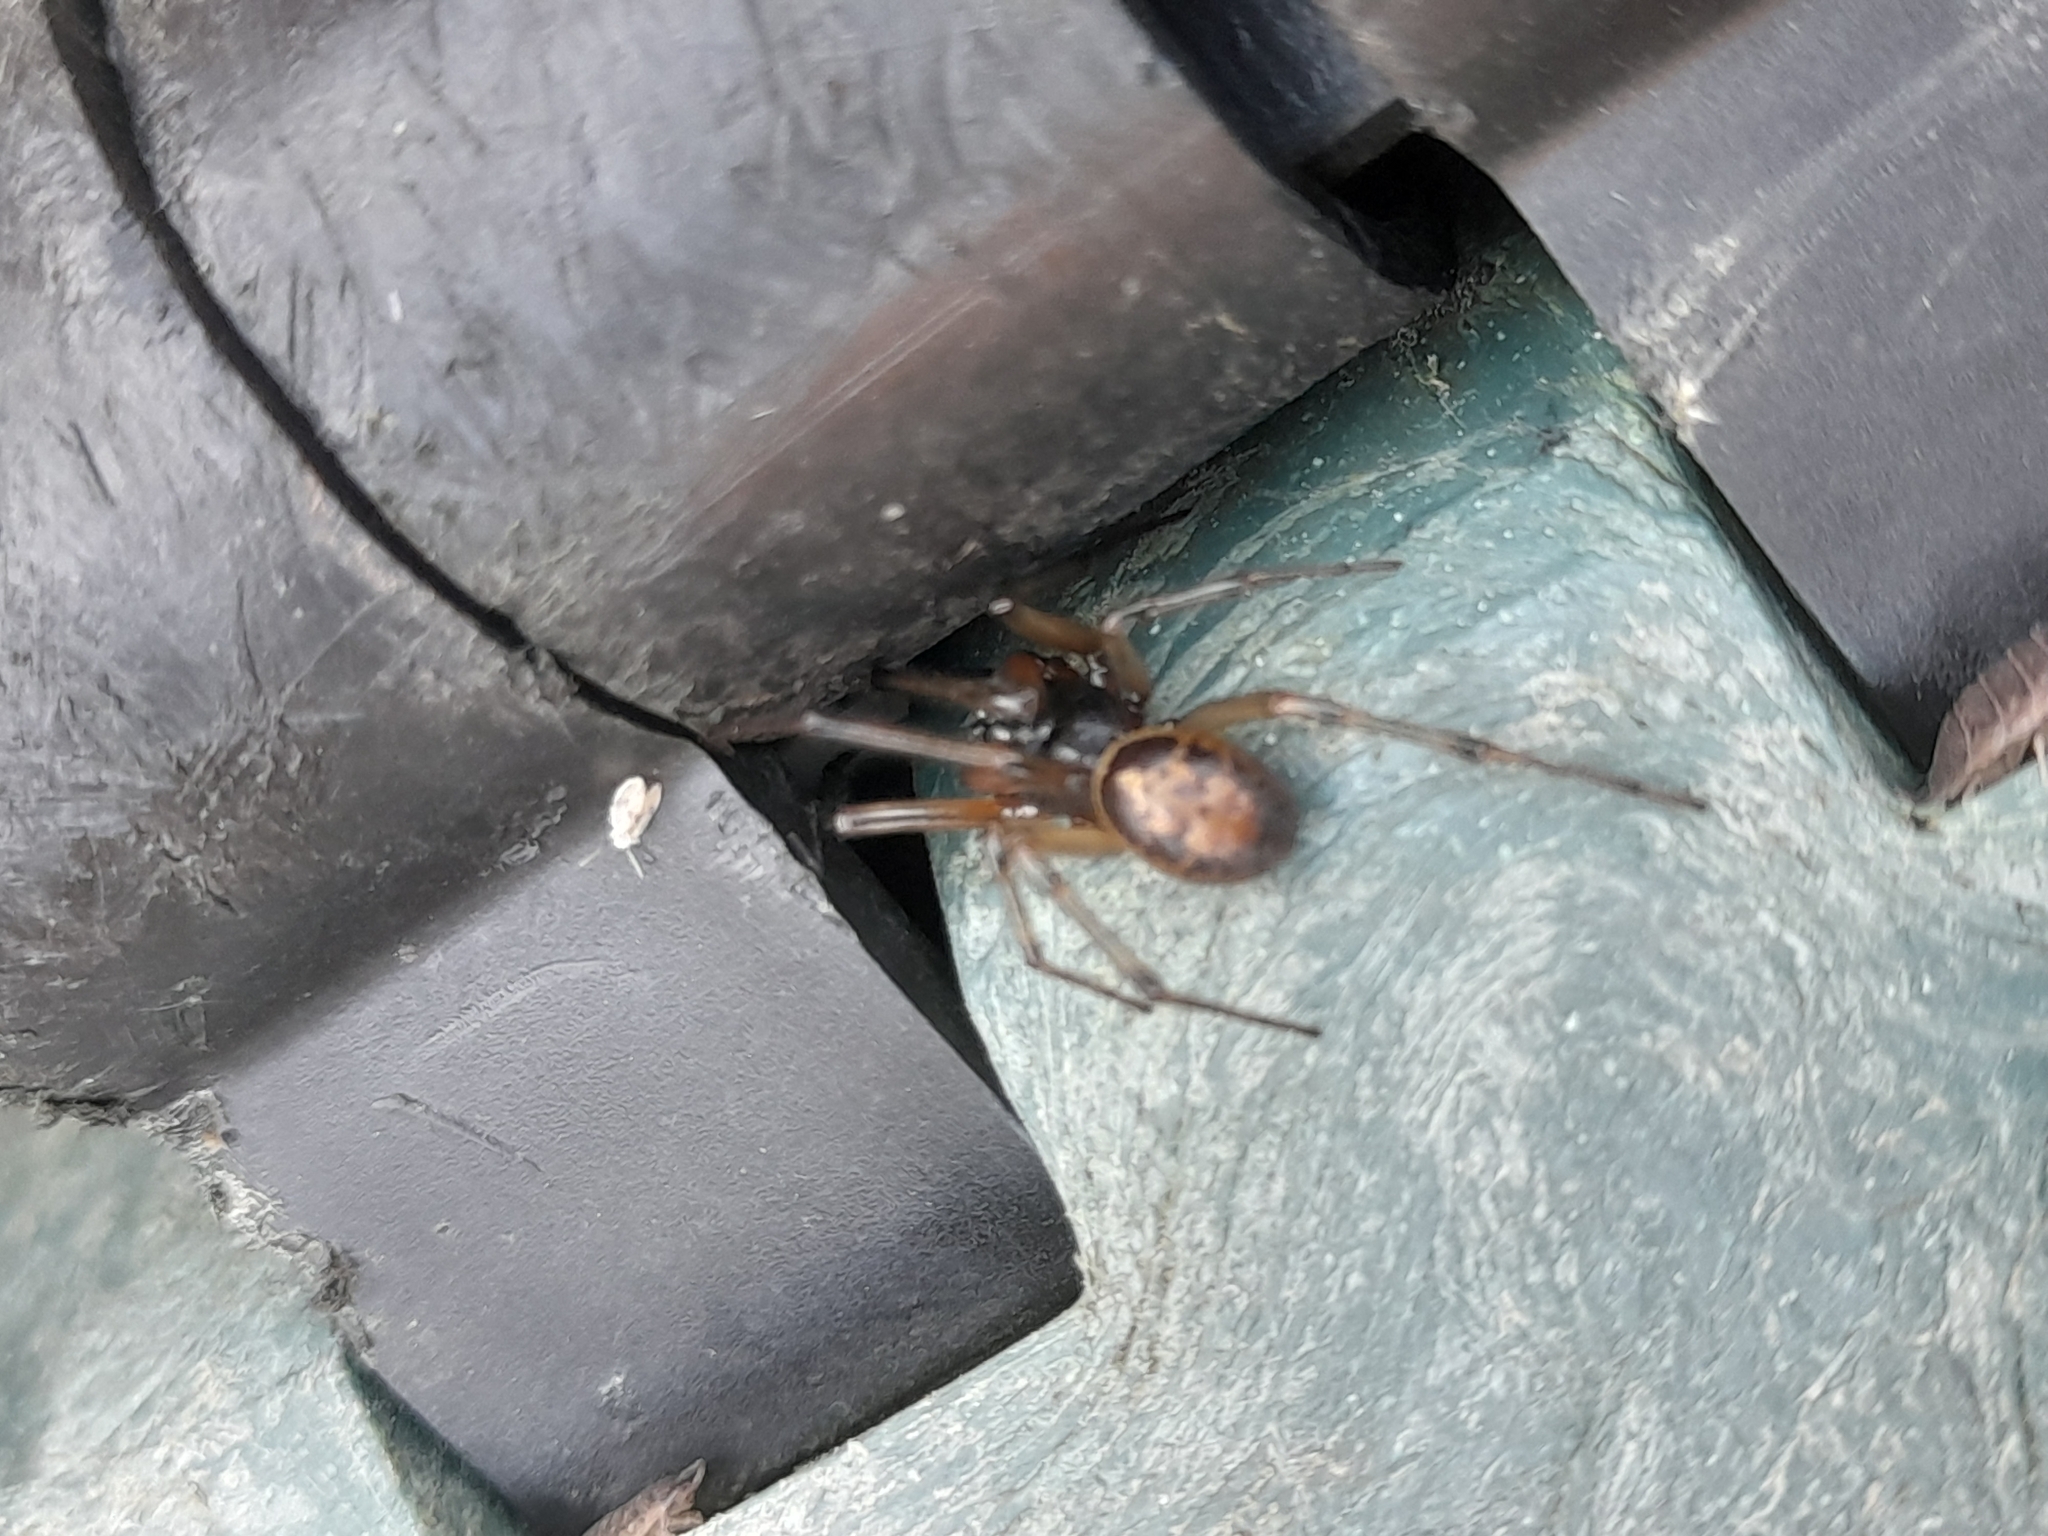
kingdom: Animalia
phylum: Arthropoda
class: Arachnida
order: Araneae
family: Theridiidae
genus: Steatoda
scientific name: Steatoda nobilis
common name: Cobweb weaver
